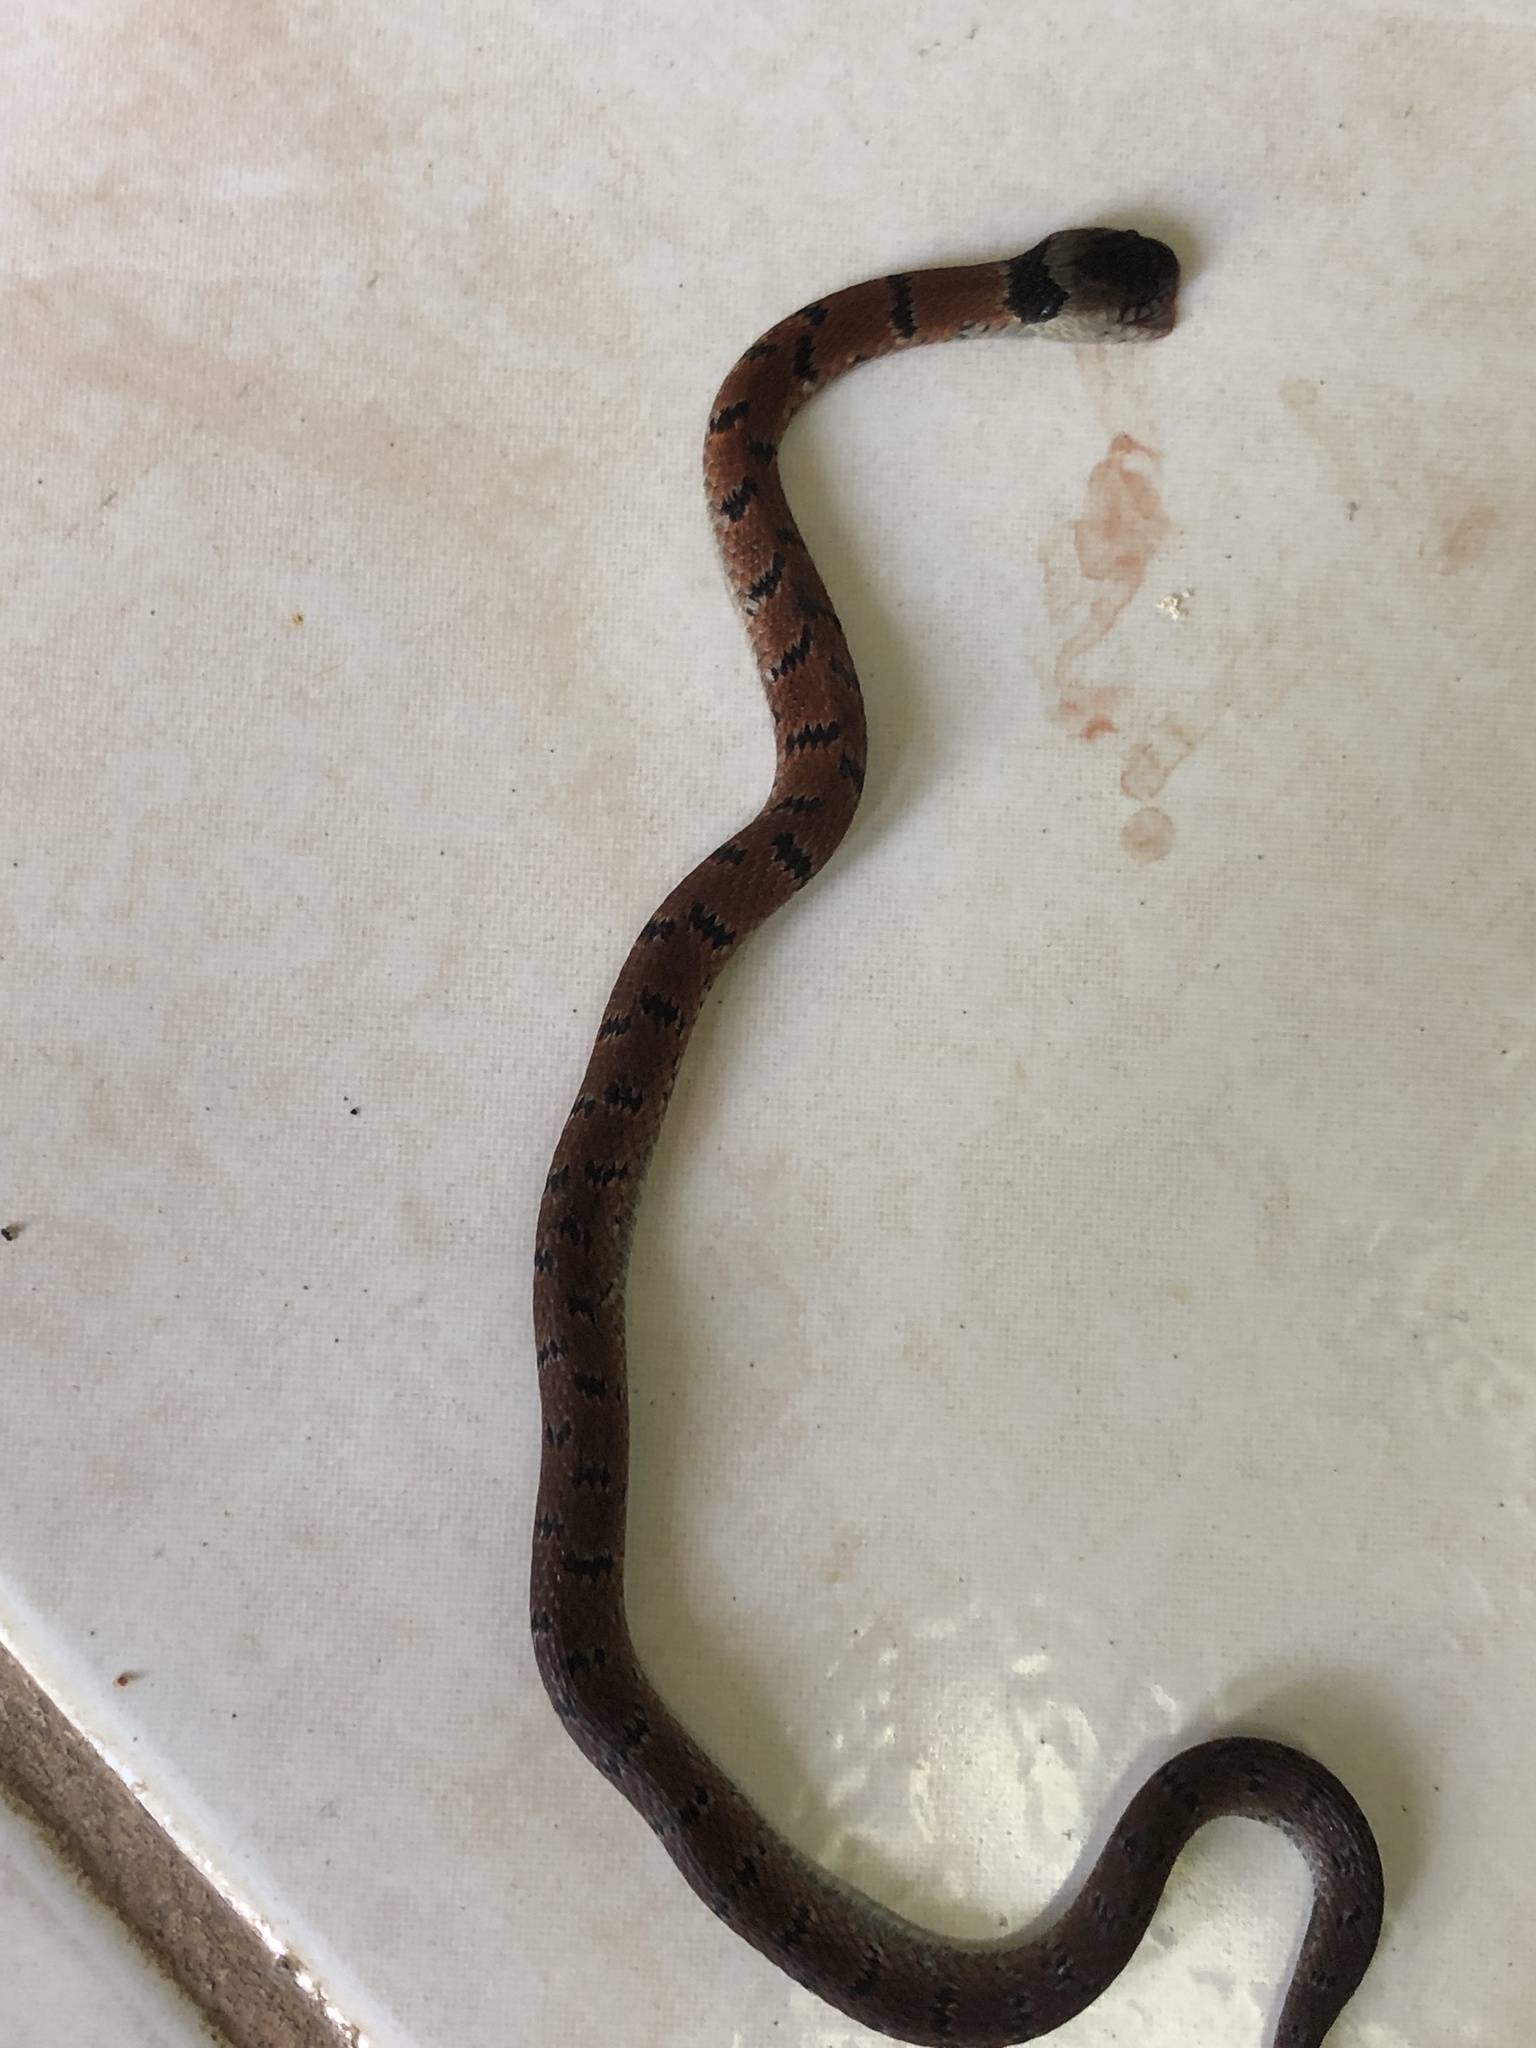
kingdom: Animalia
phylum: Chordata
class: Squamata
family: Colubridae
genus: Ninia
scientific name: Ninia maculata
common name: Spotted coffee snake
